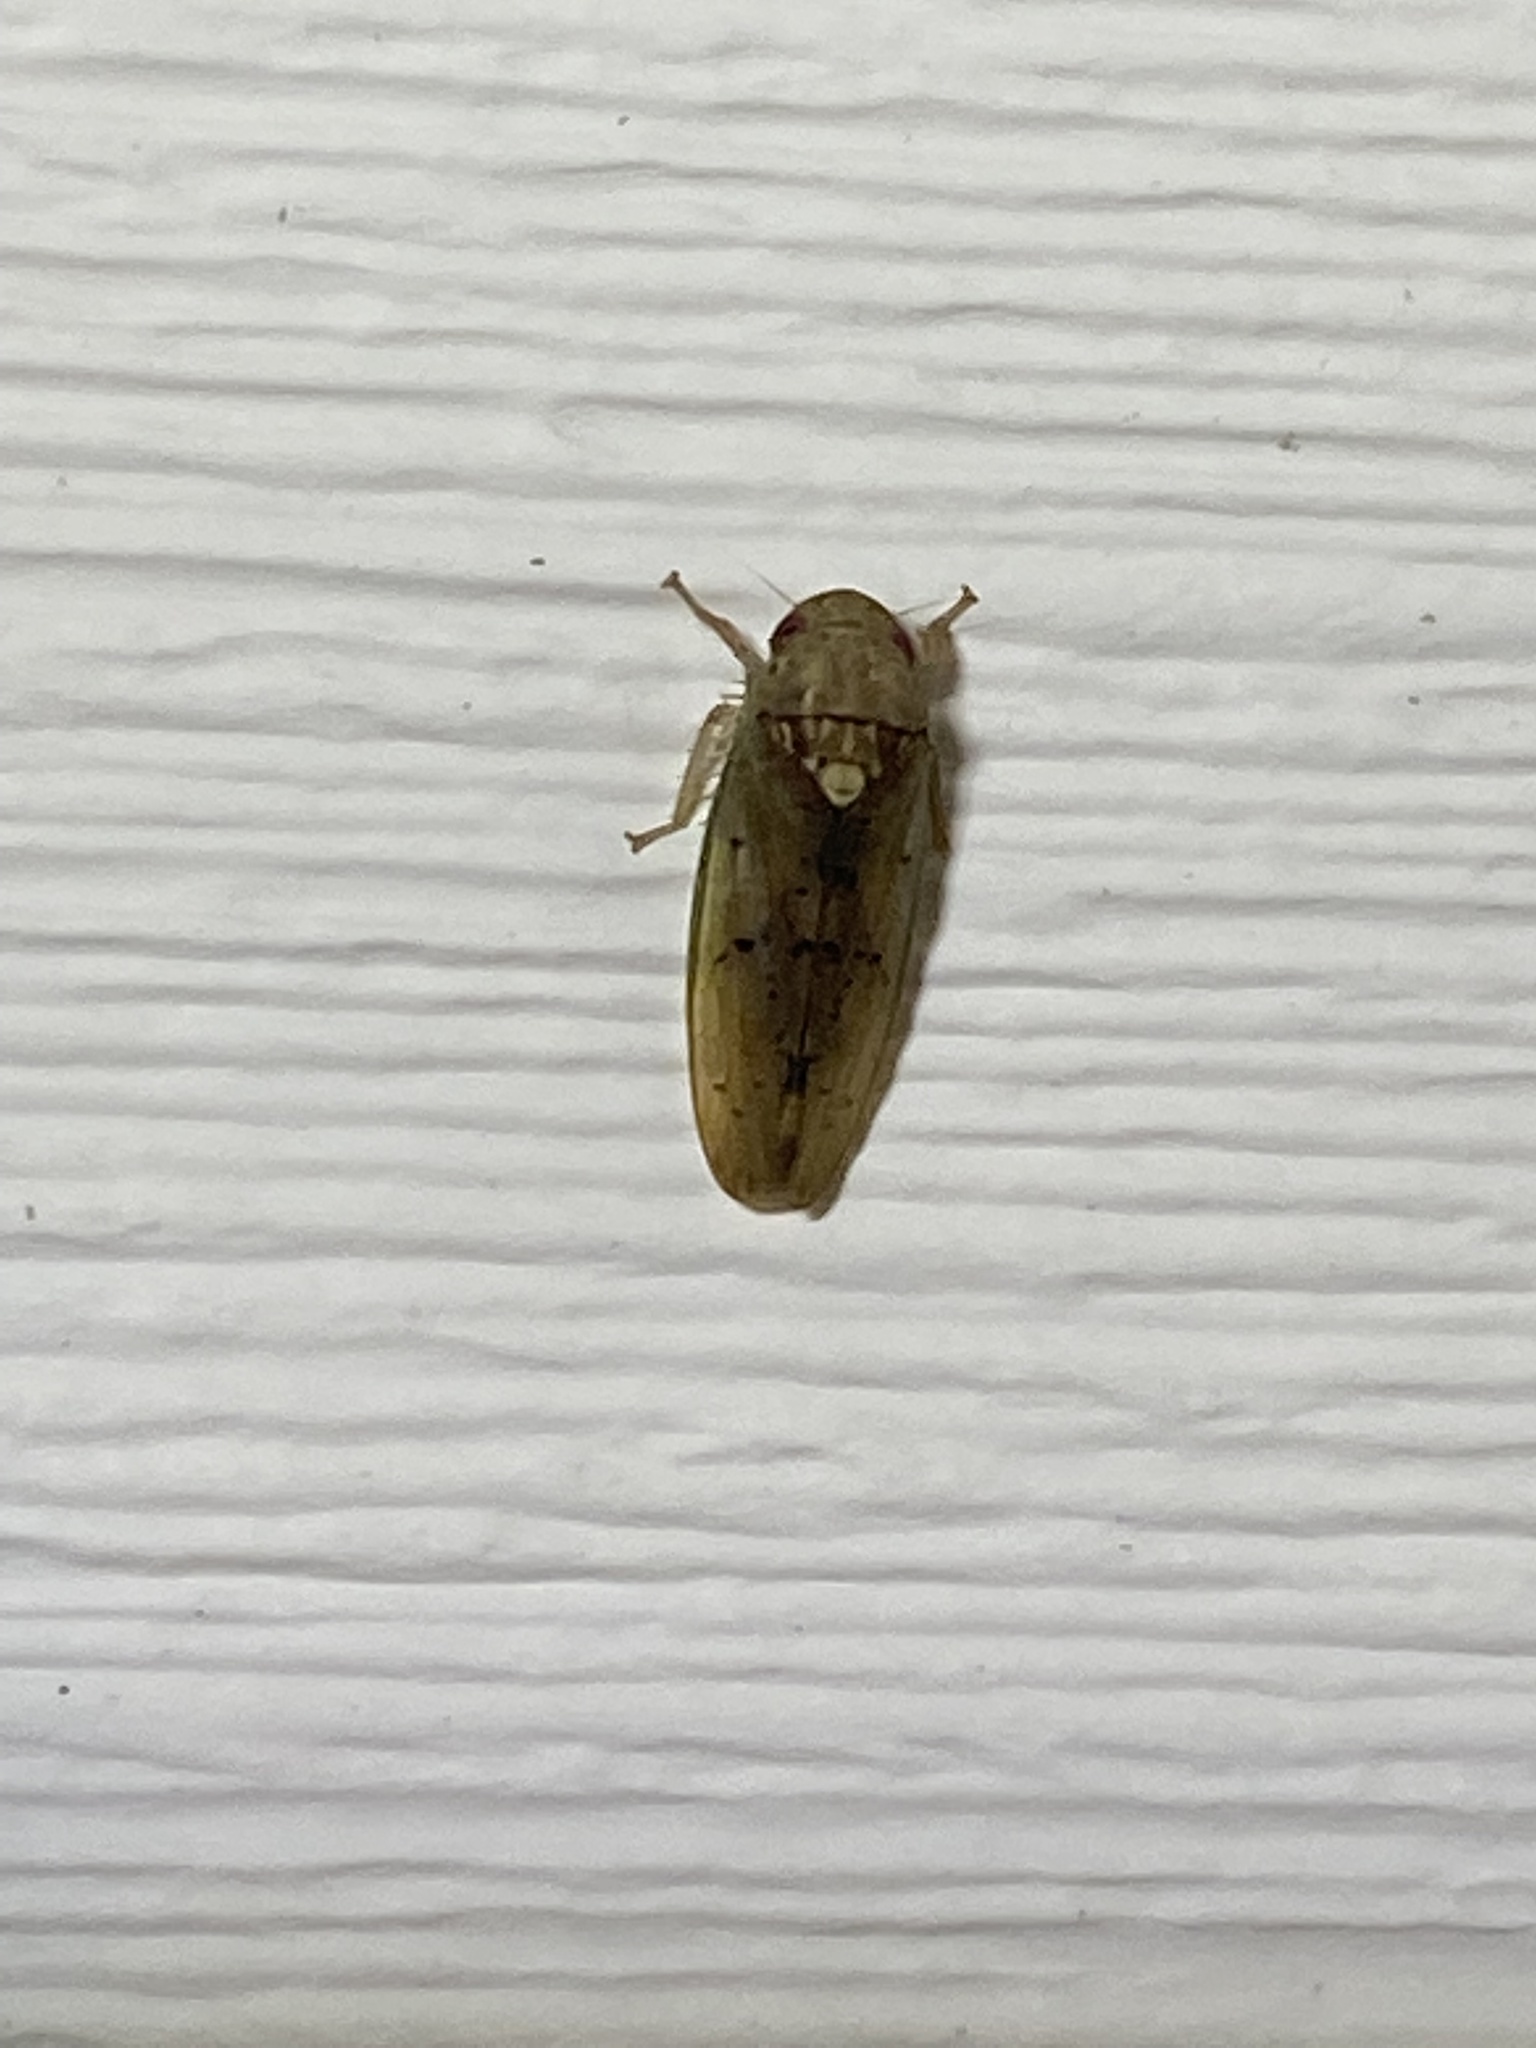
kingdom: Animalia
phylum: Arthropoda
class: Insecta
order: Hemiptera
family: Cicadellidae
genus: Ponana
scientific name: Ponana quadralaba
